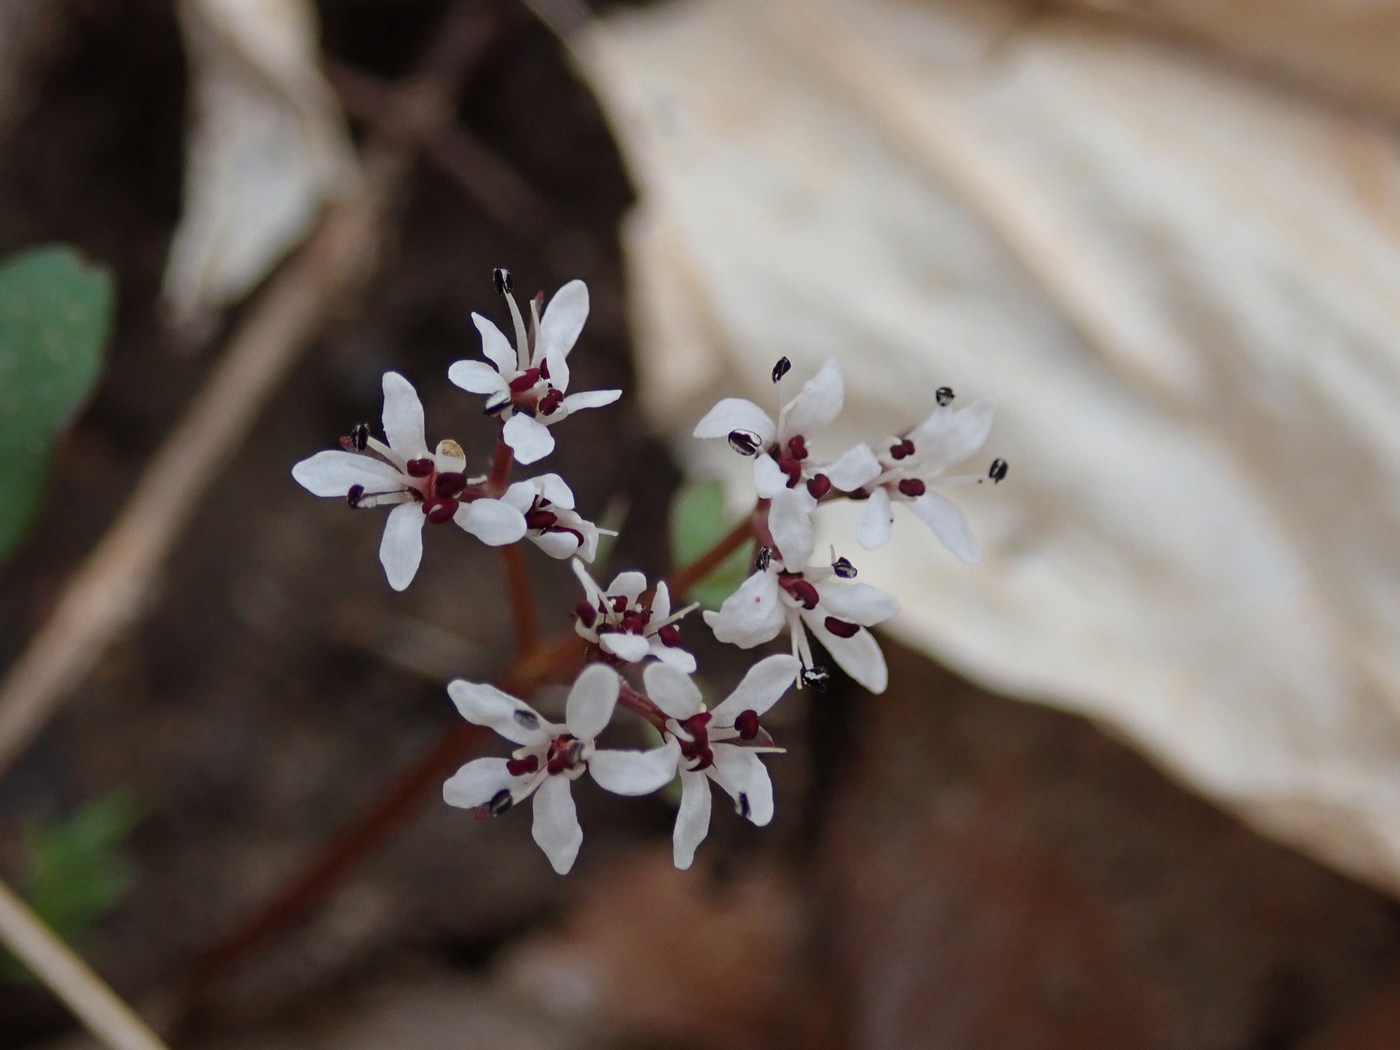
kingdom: Plantae
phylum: Tracheophyta
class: Magnoliopsida
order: Apiales
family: Apiaceae
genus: Erigenia
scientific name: Erigenia bulbosa
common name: Pepper-and-salt
